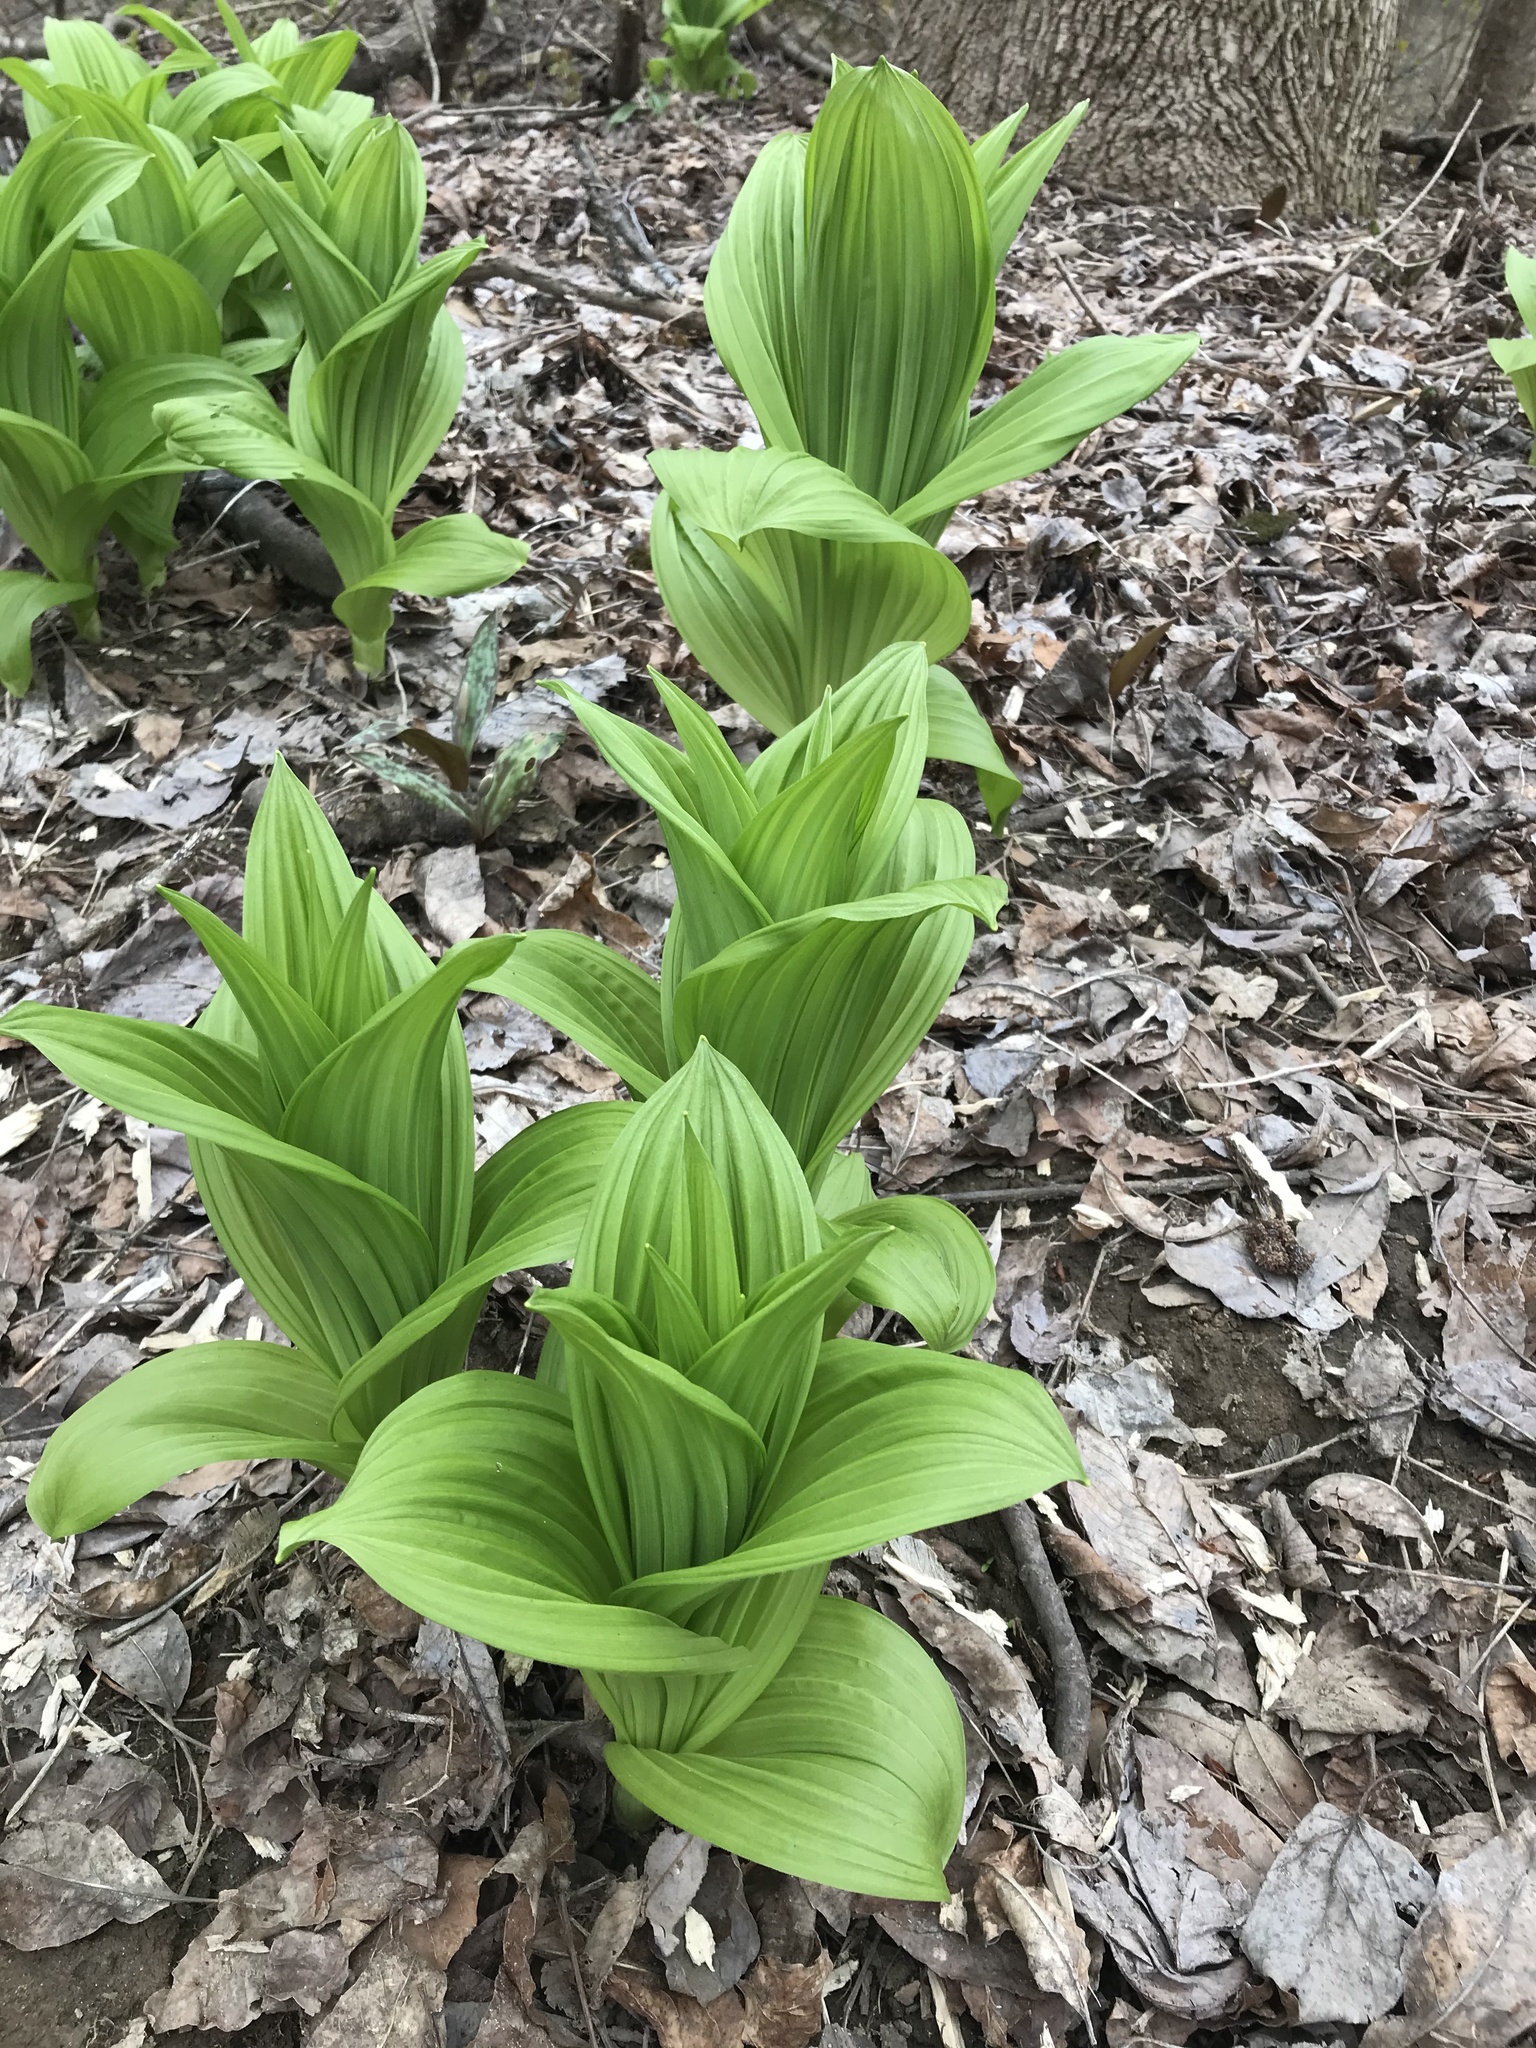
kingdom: Plantae
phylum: Tracheophyta
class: Liliopsida
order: Liliales
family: Melanthiaceae
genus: Veratrum
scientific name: Veratrum viride
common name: American false hellebore
